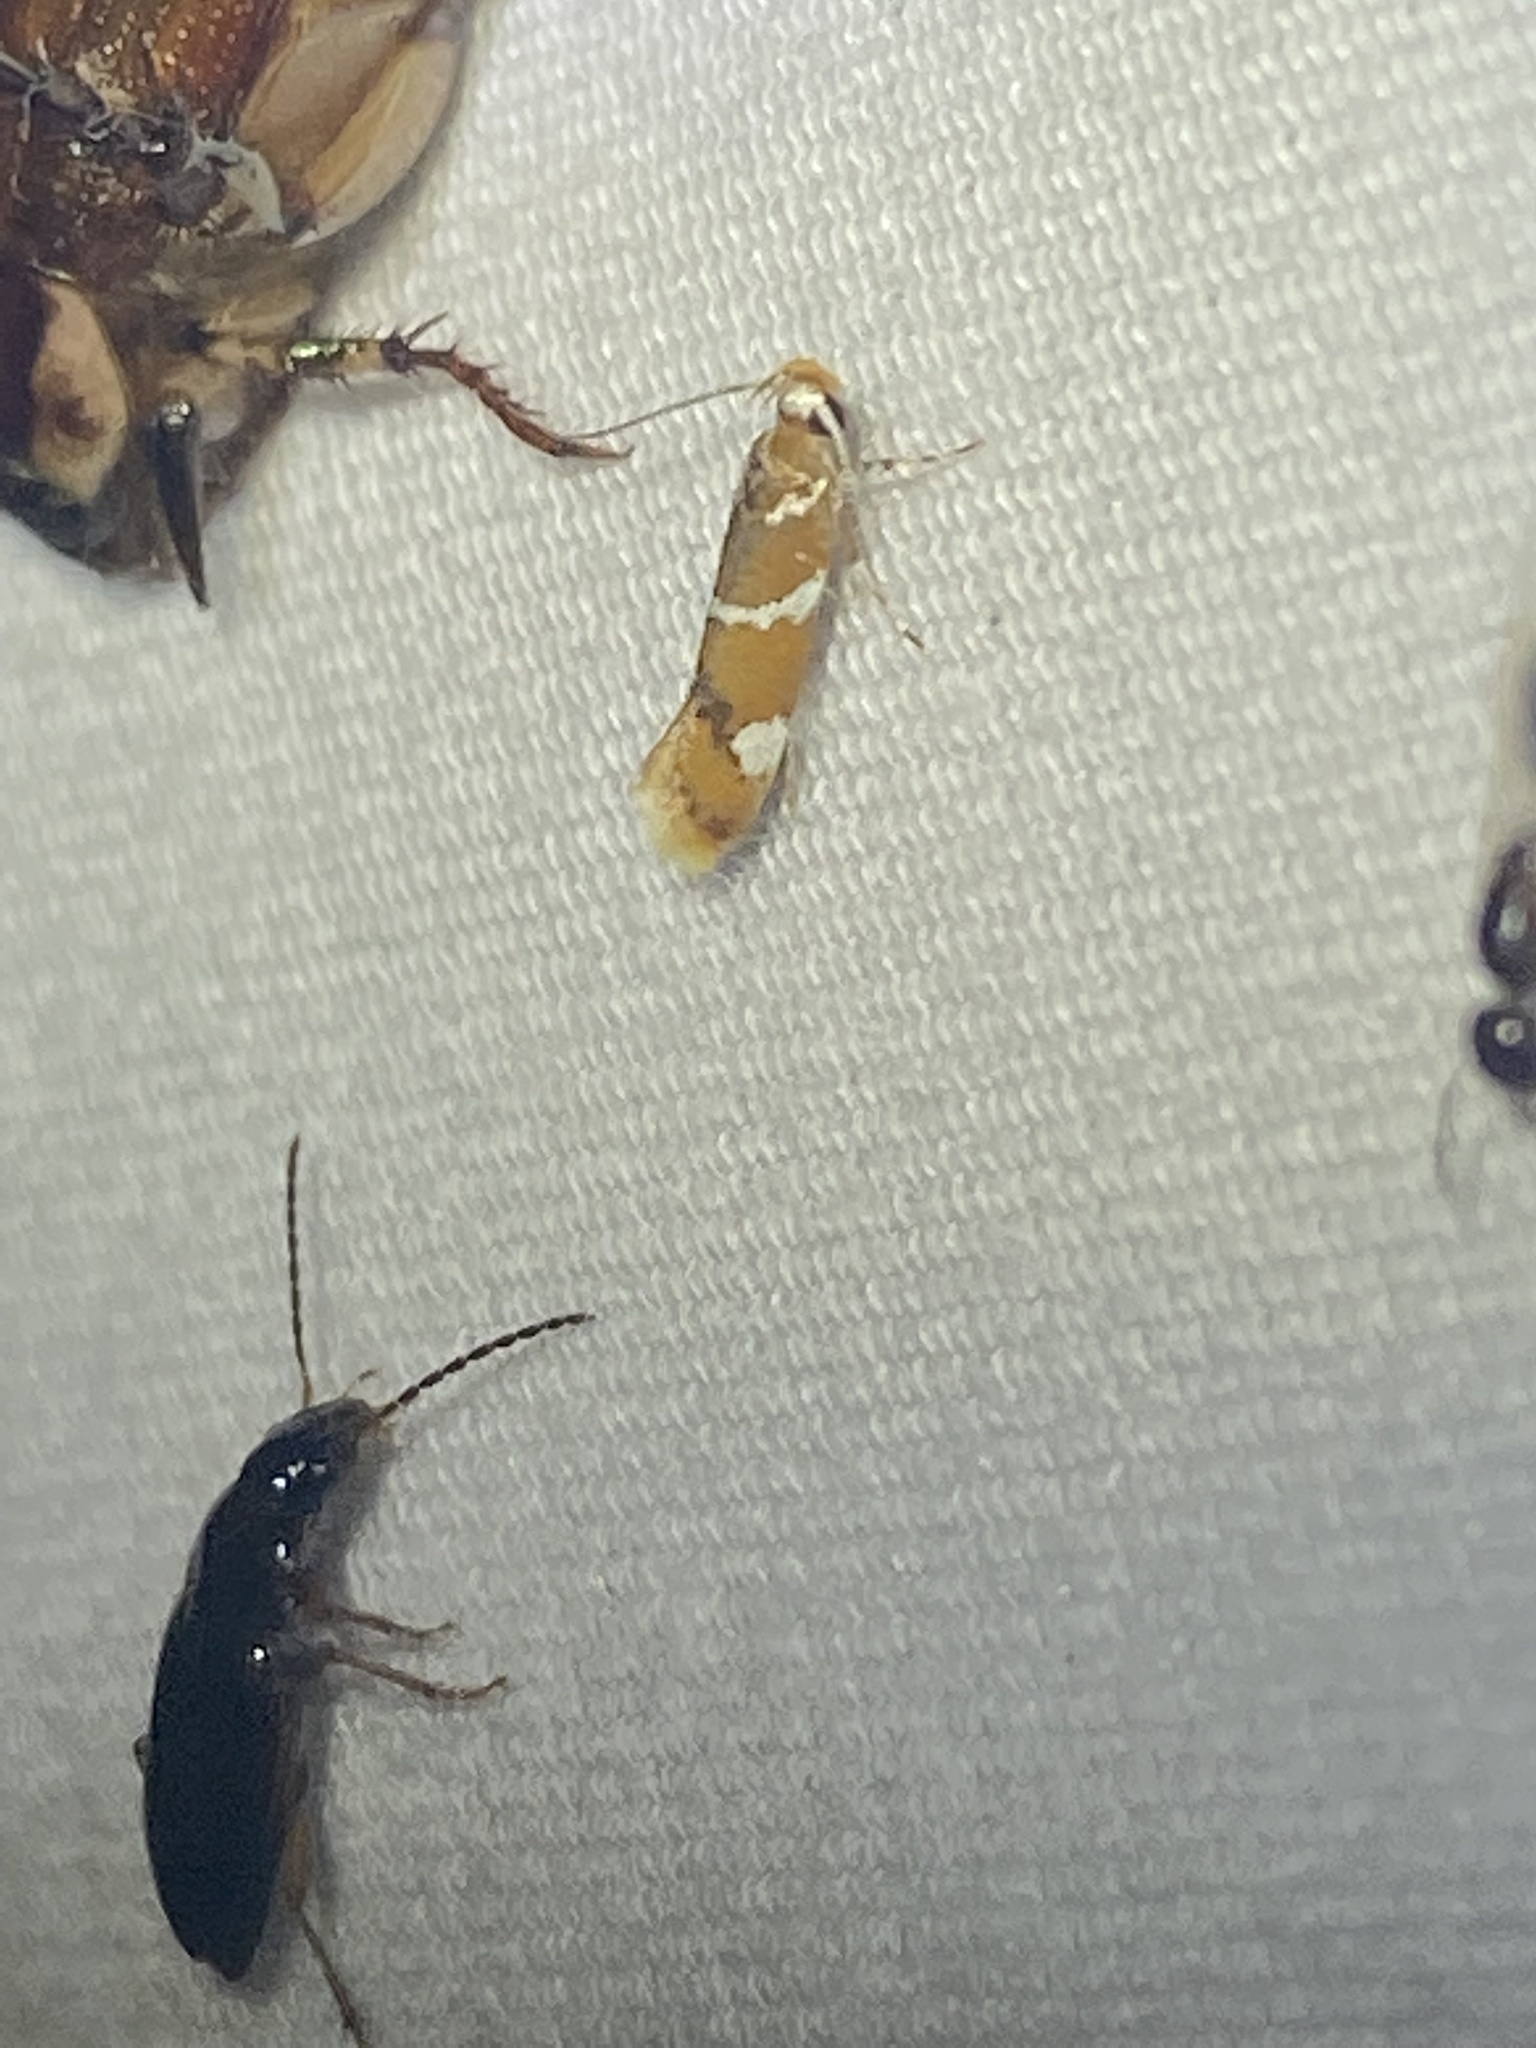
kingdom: Animalia
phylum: Arthropoda
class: Insecta
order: Lepidoptera
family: Oecophoridae
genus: Promalactis
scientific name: Promalactis suzukiella
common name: Moth
